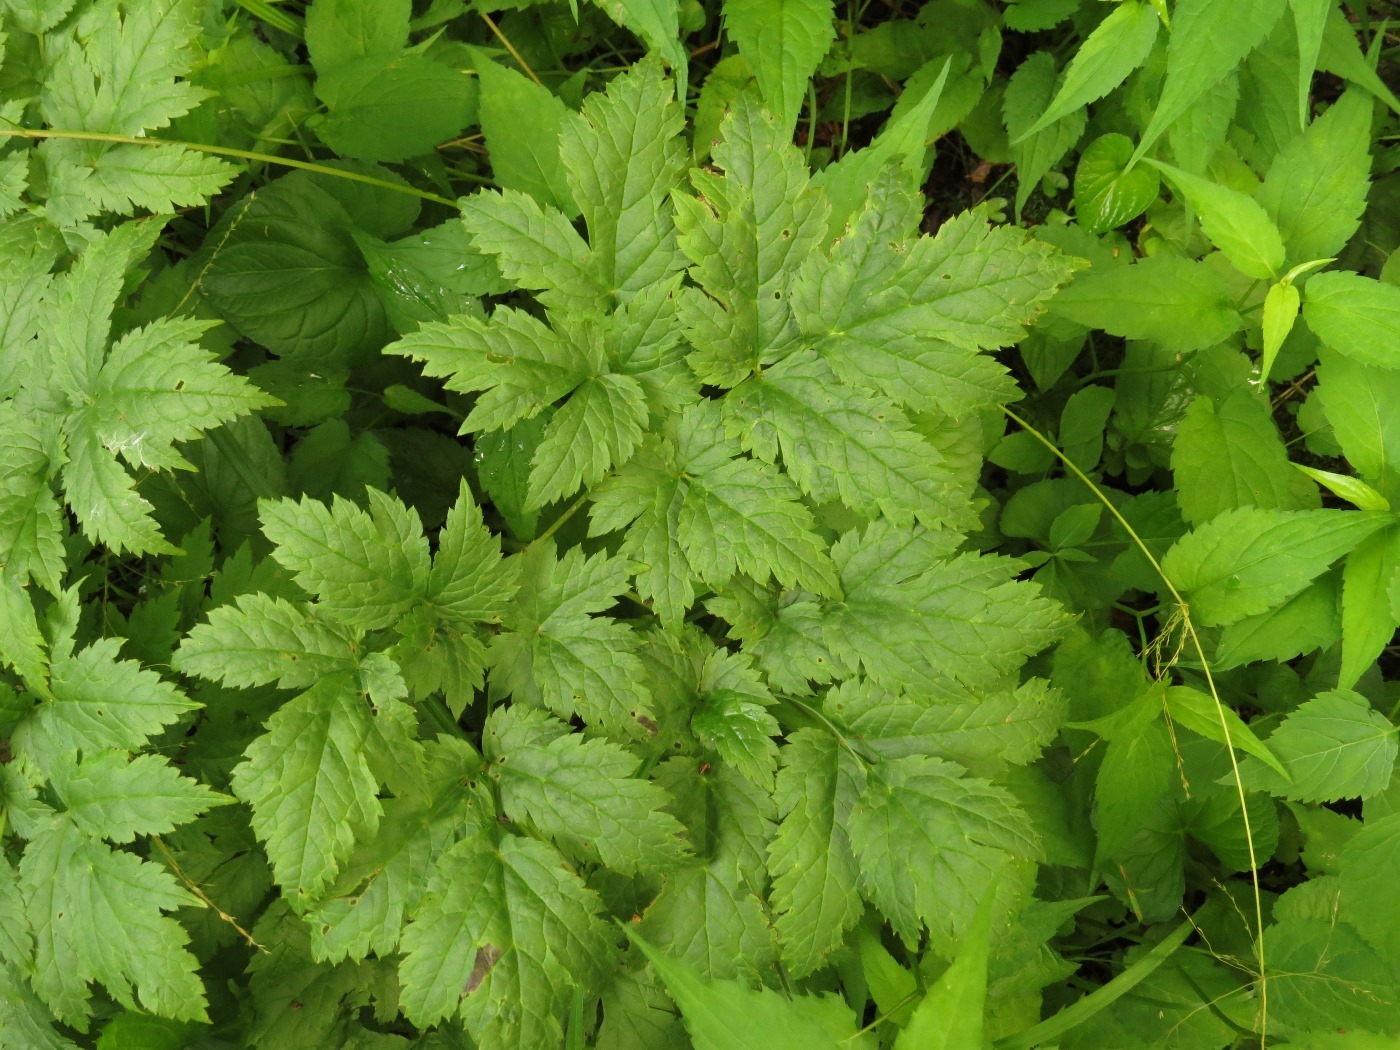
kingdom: Plantae
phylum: Tracheophyta
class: Magnoliopsida
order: Ranunculales
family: Ranunculaceae
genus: Actaea
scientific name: Actaea podocarpa
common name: American bugbane
